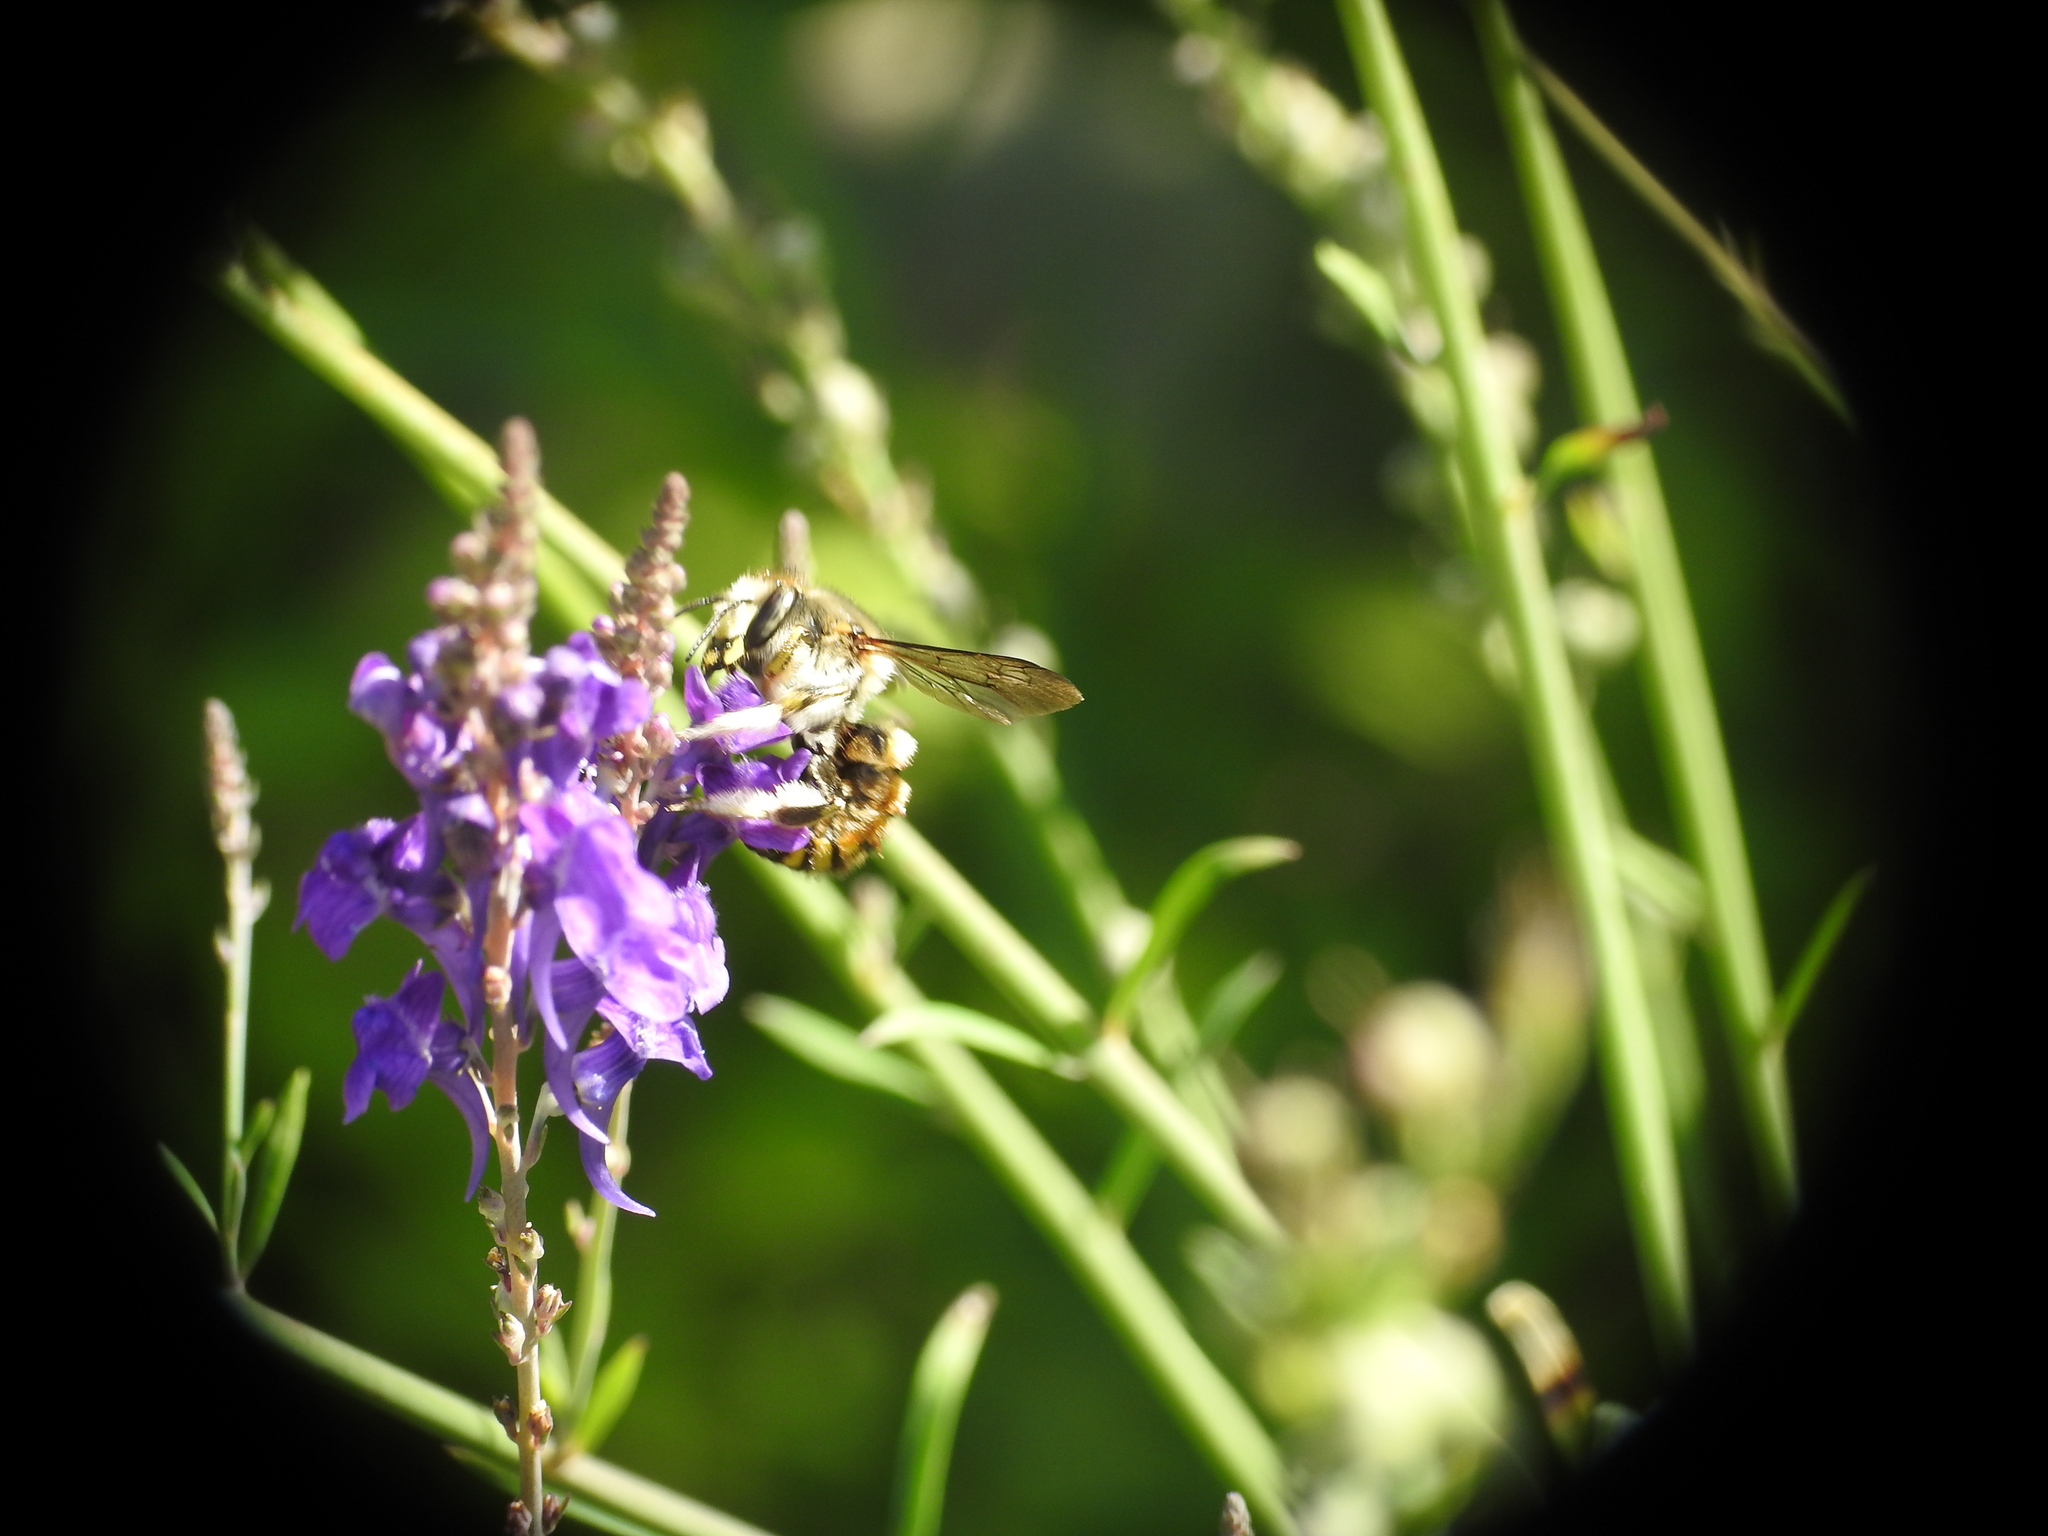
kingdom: Animalia
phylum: Arthropoda
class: Insecta
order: Hymenoptera
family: Megachilidae
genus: Anthidium
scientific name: Anthidium manicatum
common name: Wool carder bee
